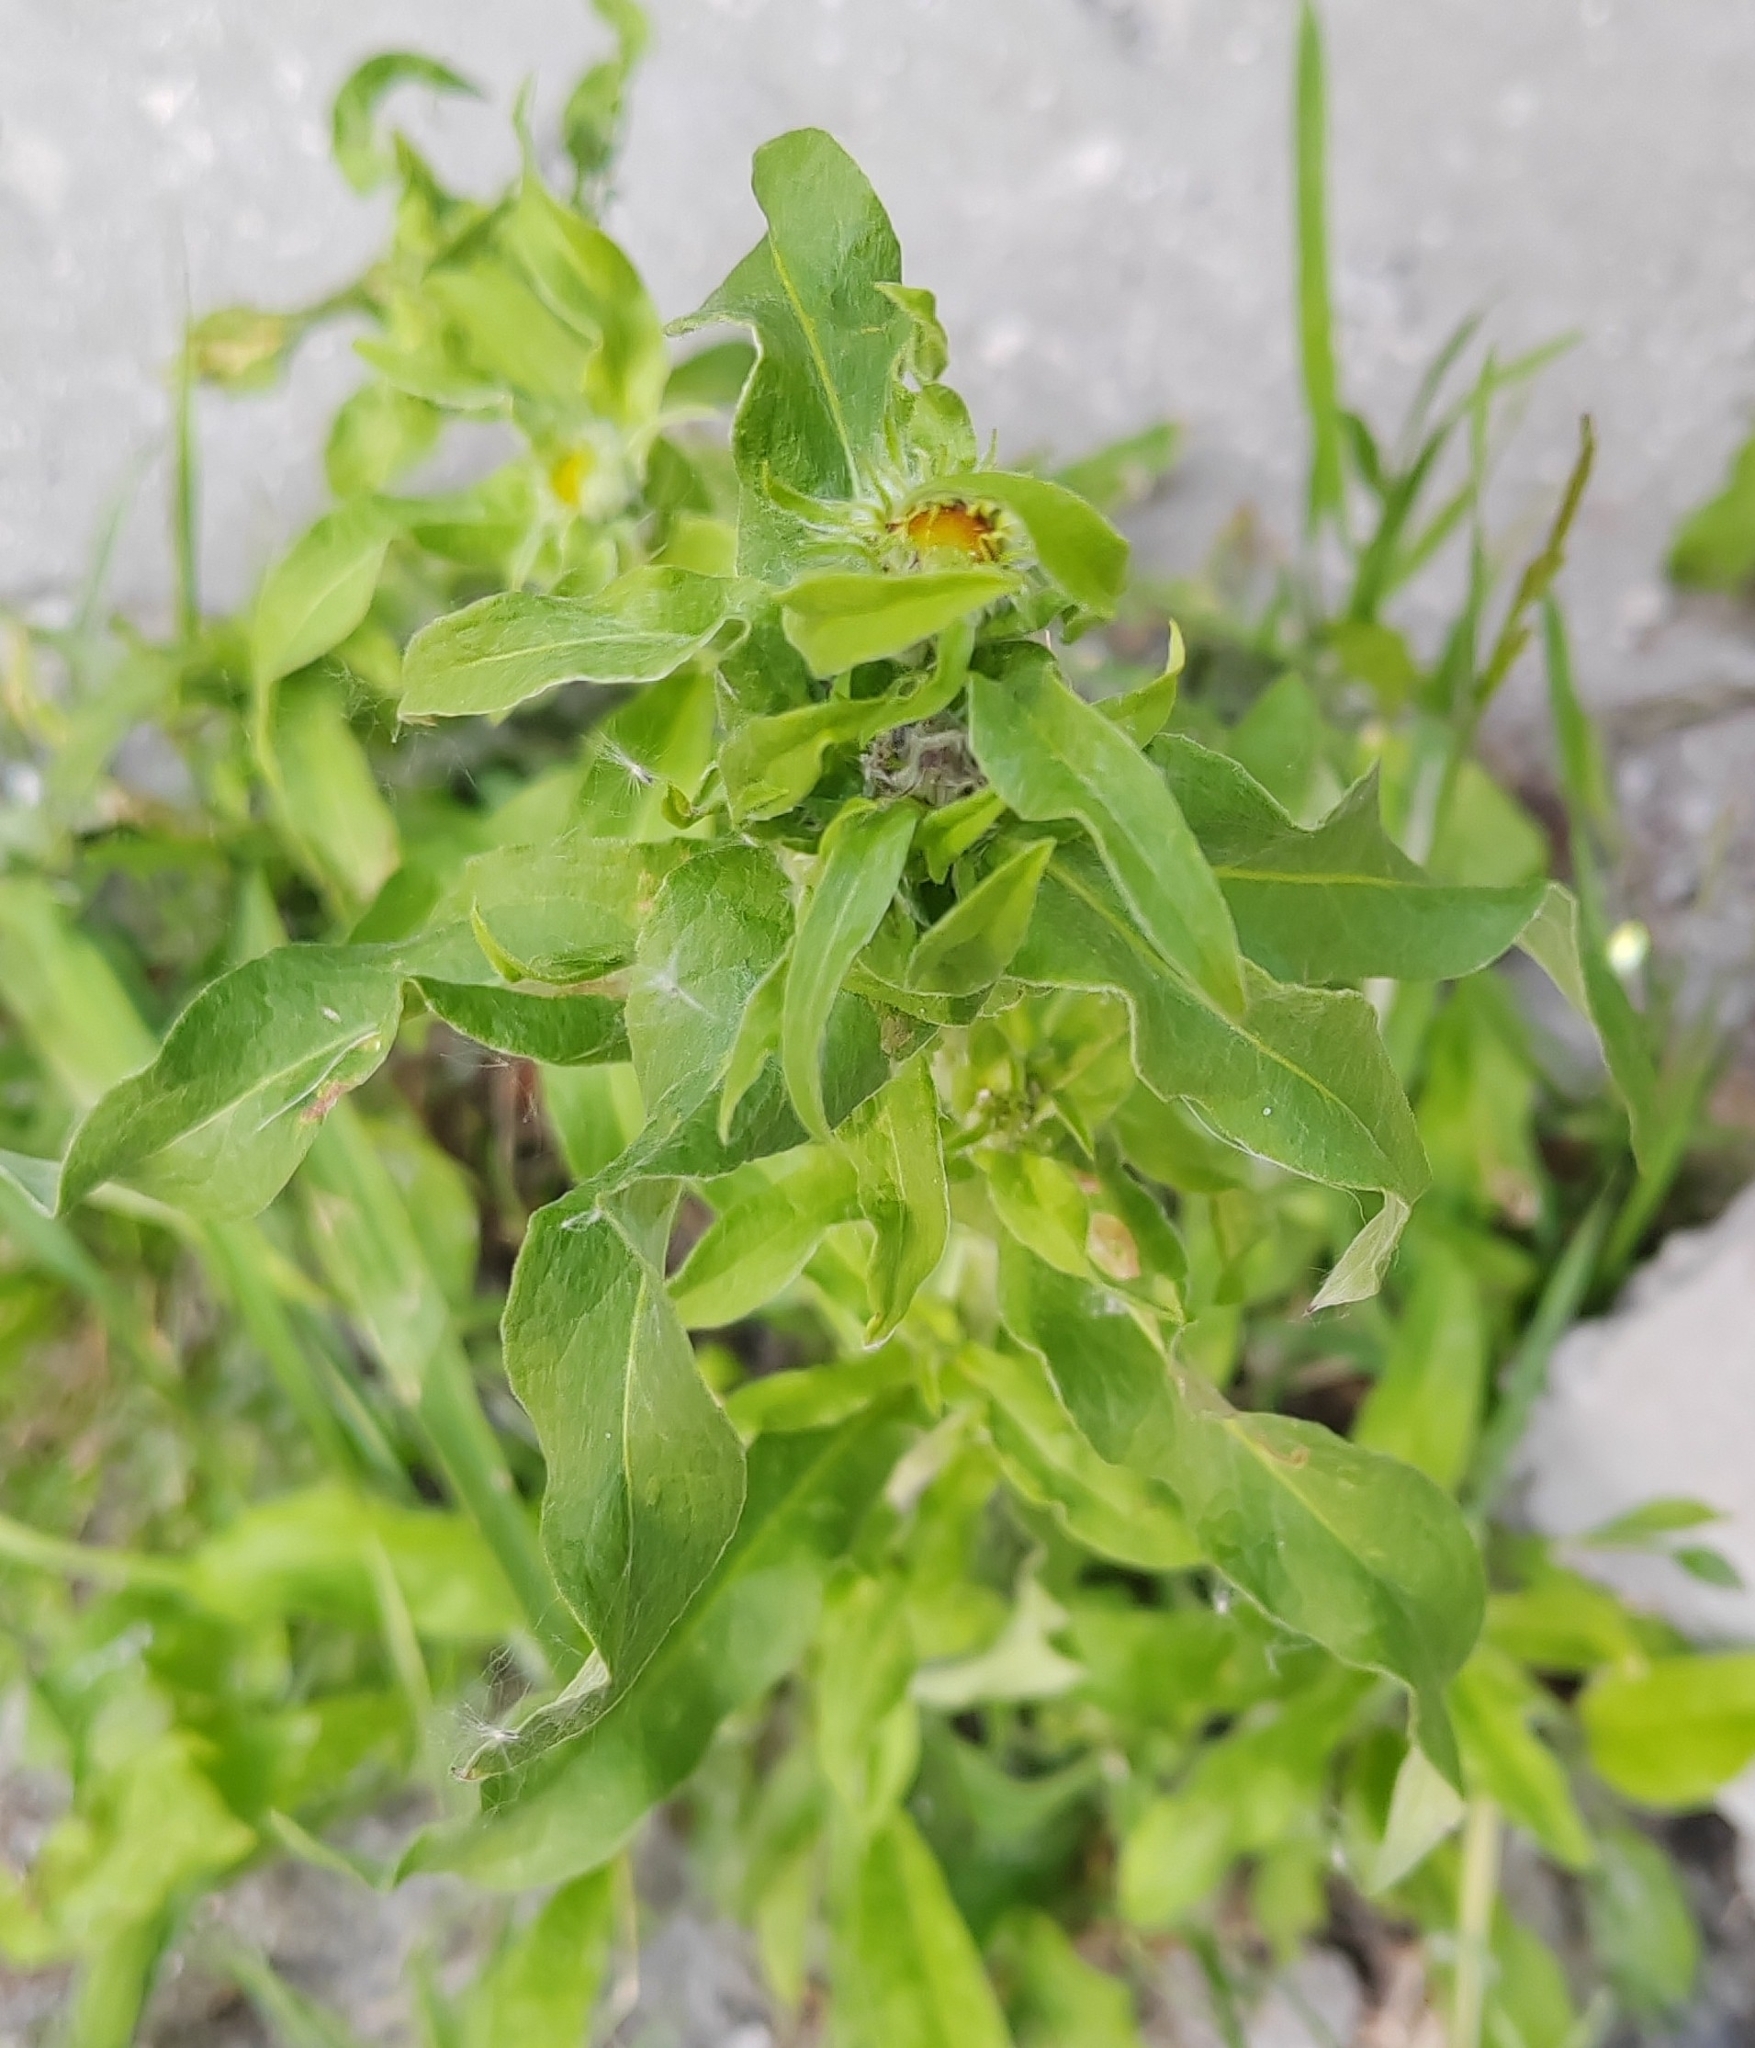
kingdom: Plantae
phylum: Tracheophyta
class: Magnoliopsida
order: Asterales
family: Asteraceae
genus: Pentanema
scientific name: Pentanema britannicum
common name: British elecampane
